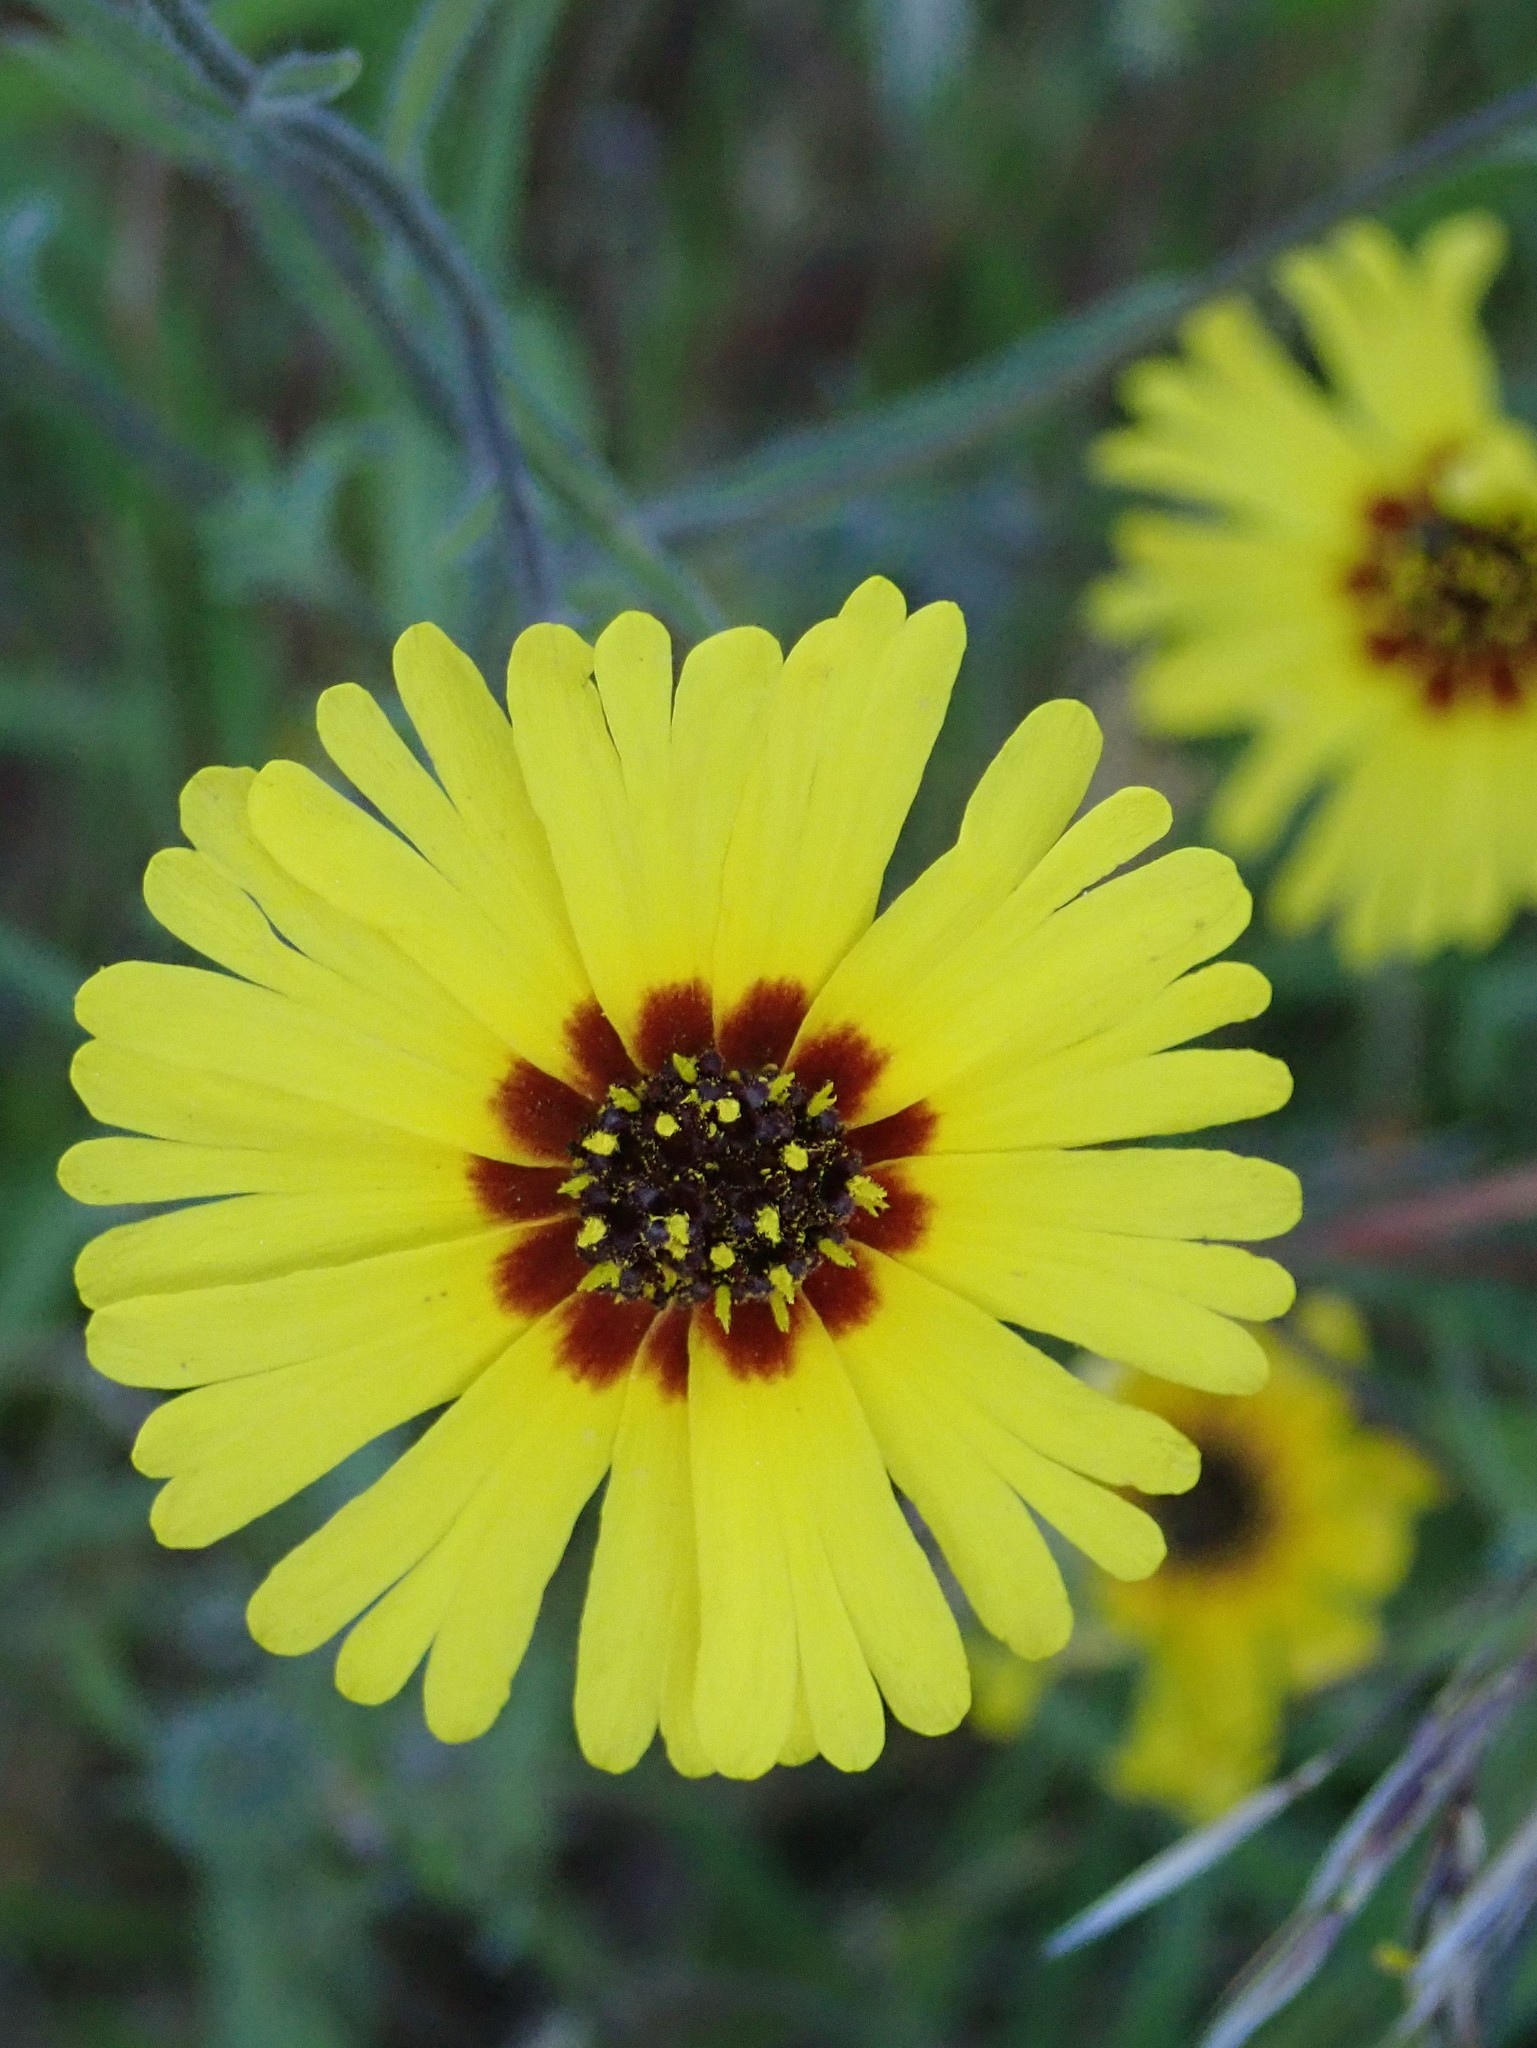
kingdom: Plantae
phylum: Tracheophyta
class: Magnoliopsida
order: Asterales
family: Asteraceae
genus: Madia
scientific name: Madia elegans
